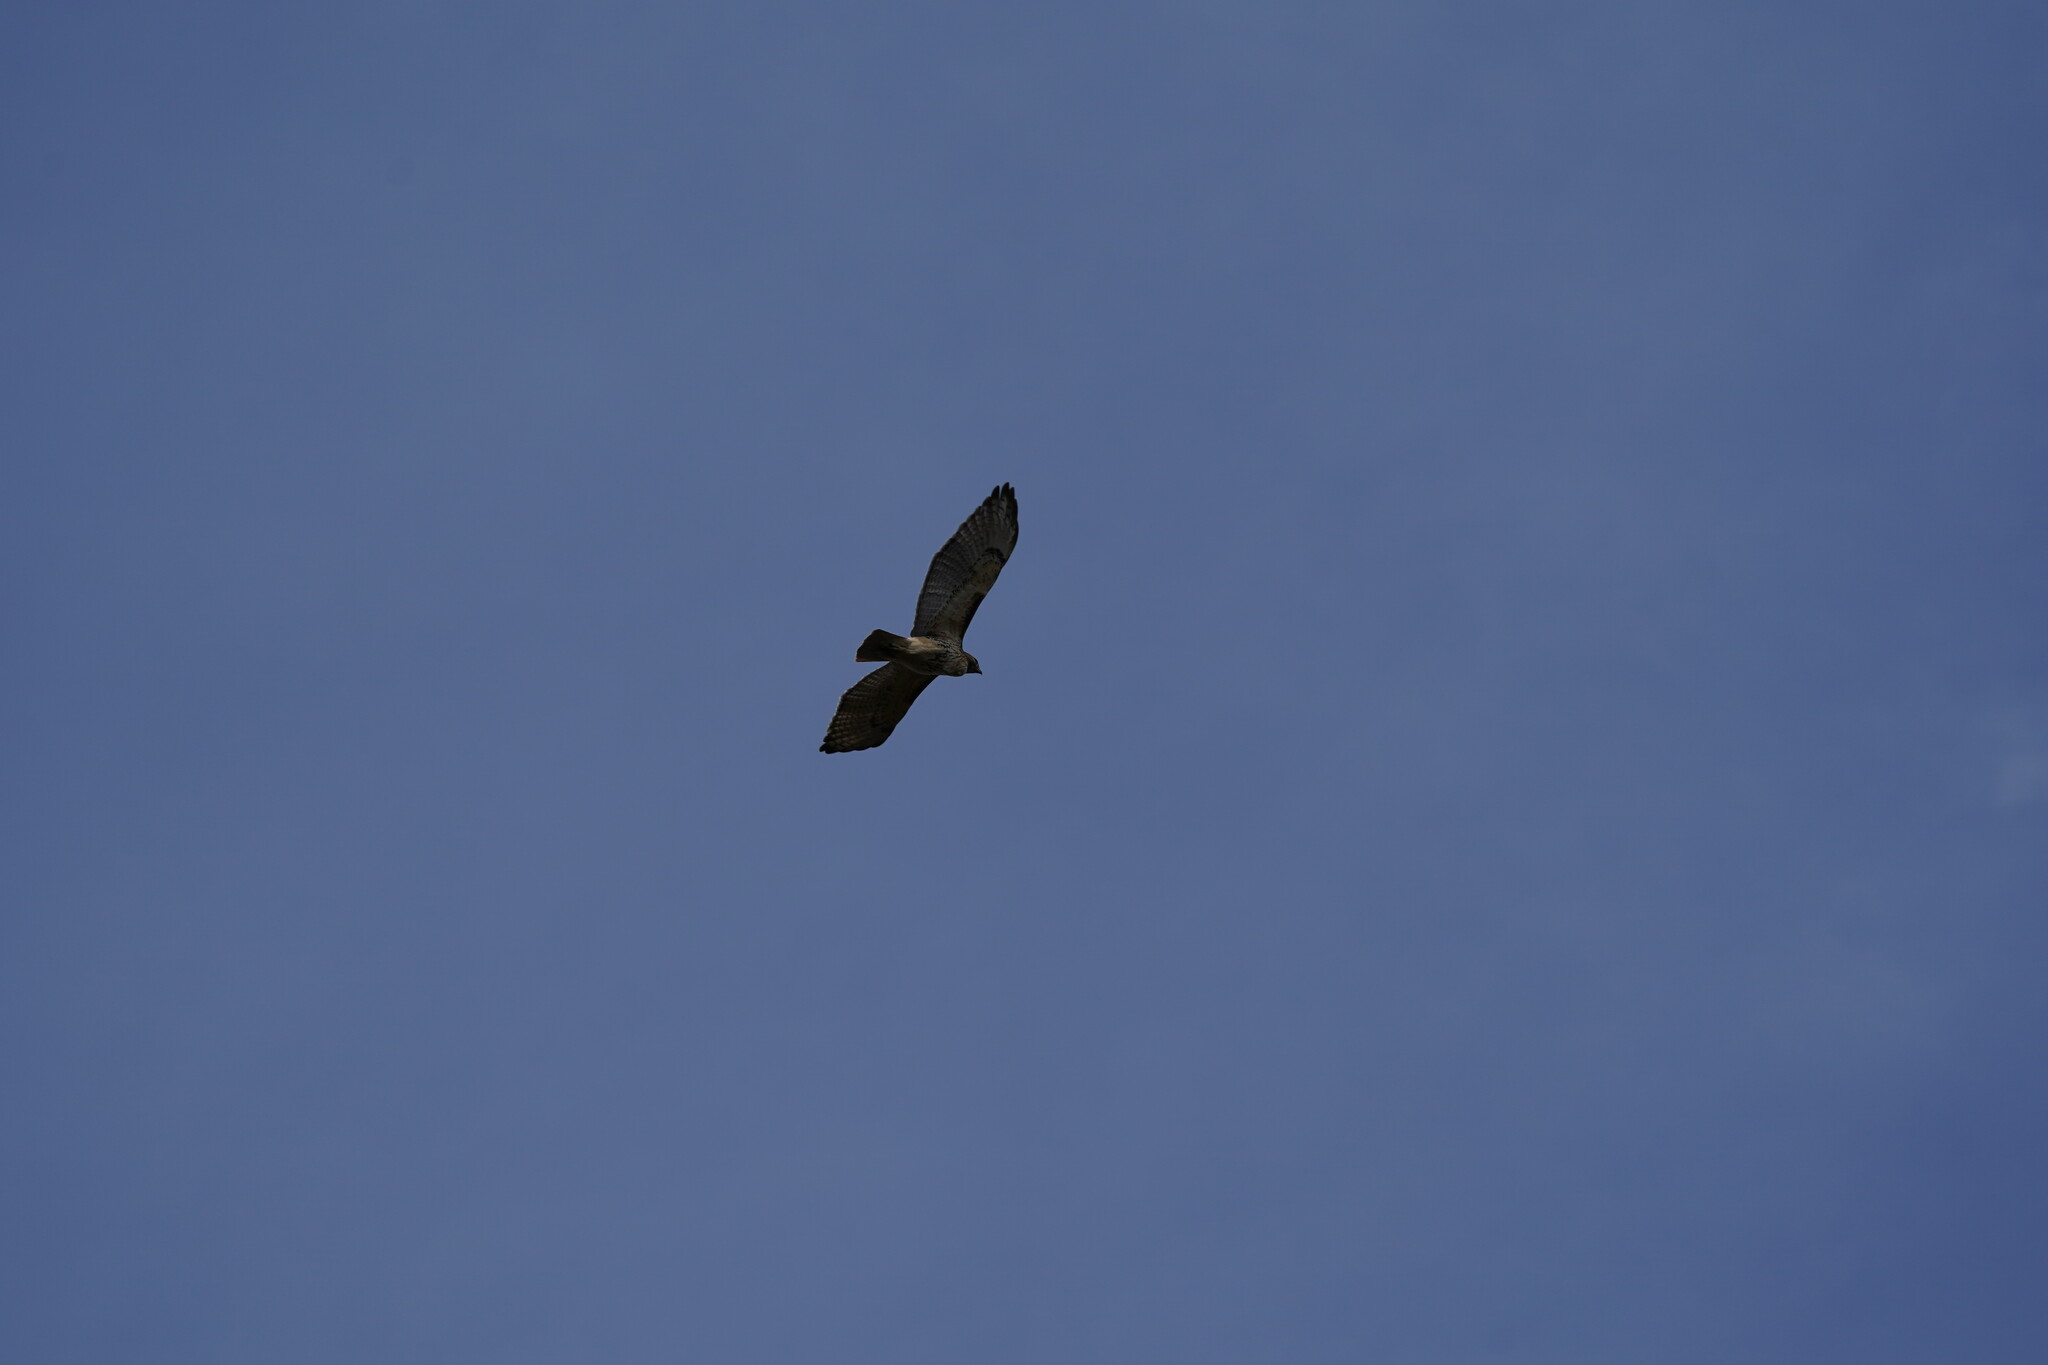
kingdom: Animalia
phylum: Chordata
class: Aves
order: Accipitriformes
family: Accipitridae
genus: Buteo
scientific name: Buteo jamaicensis
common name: Red-tailed hawk
